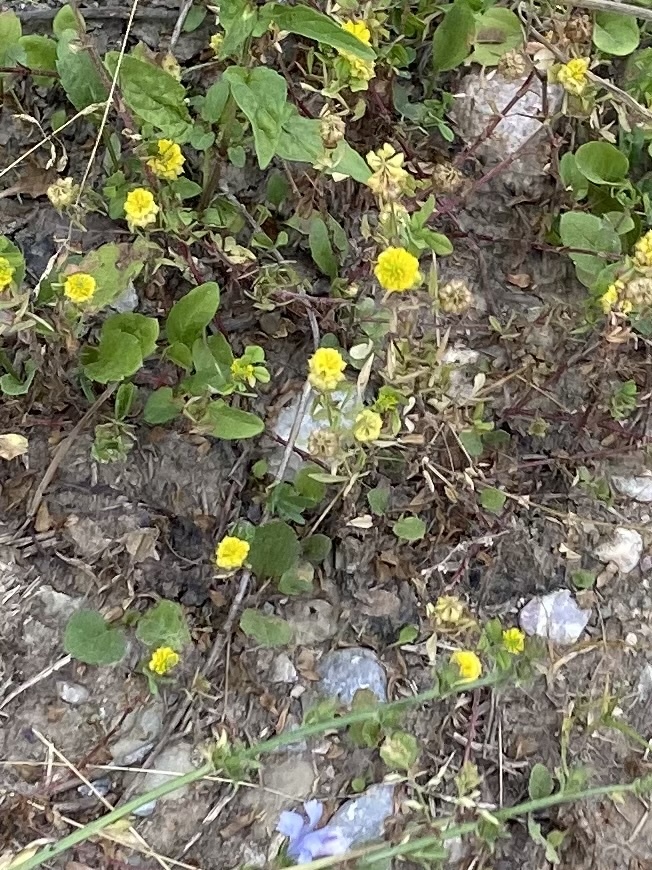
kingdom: Plantae
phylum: Tracheophyta
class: Magnoliopsida
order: Fabales
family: Fabaceae
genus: Trifolium
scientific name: Trifolium campestre
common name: Field clover
